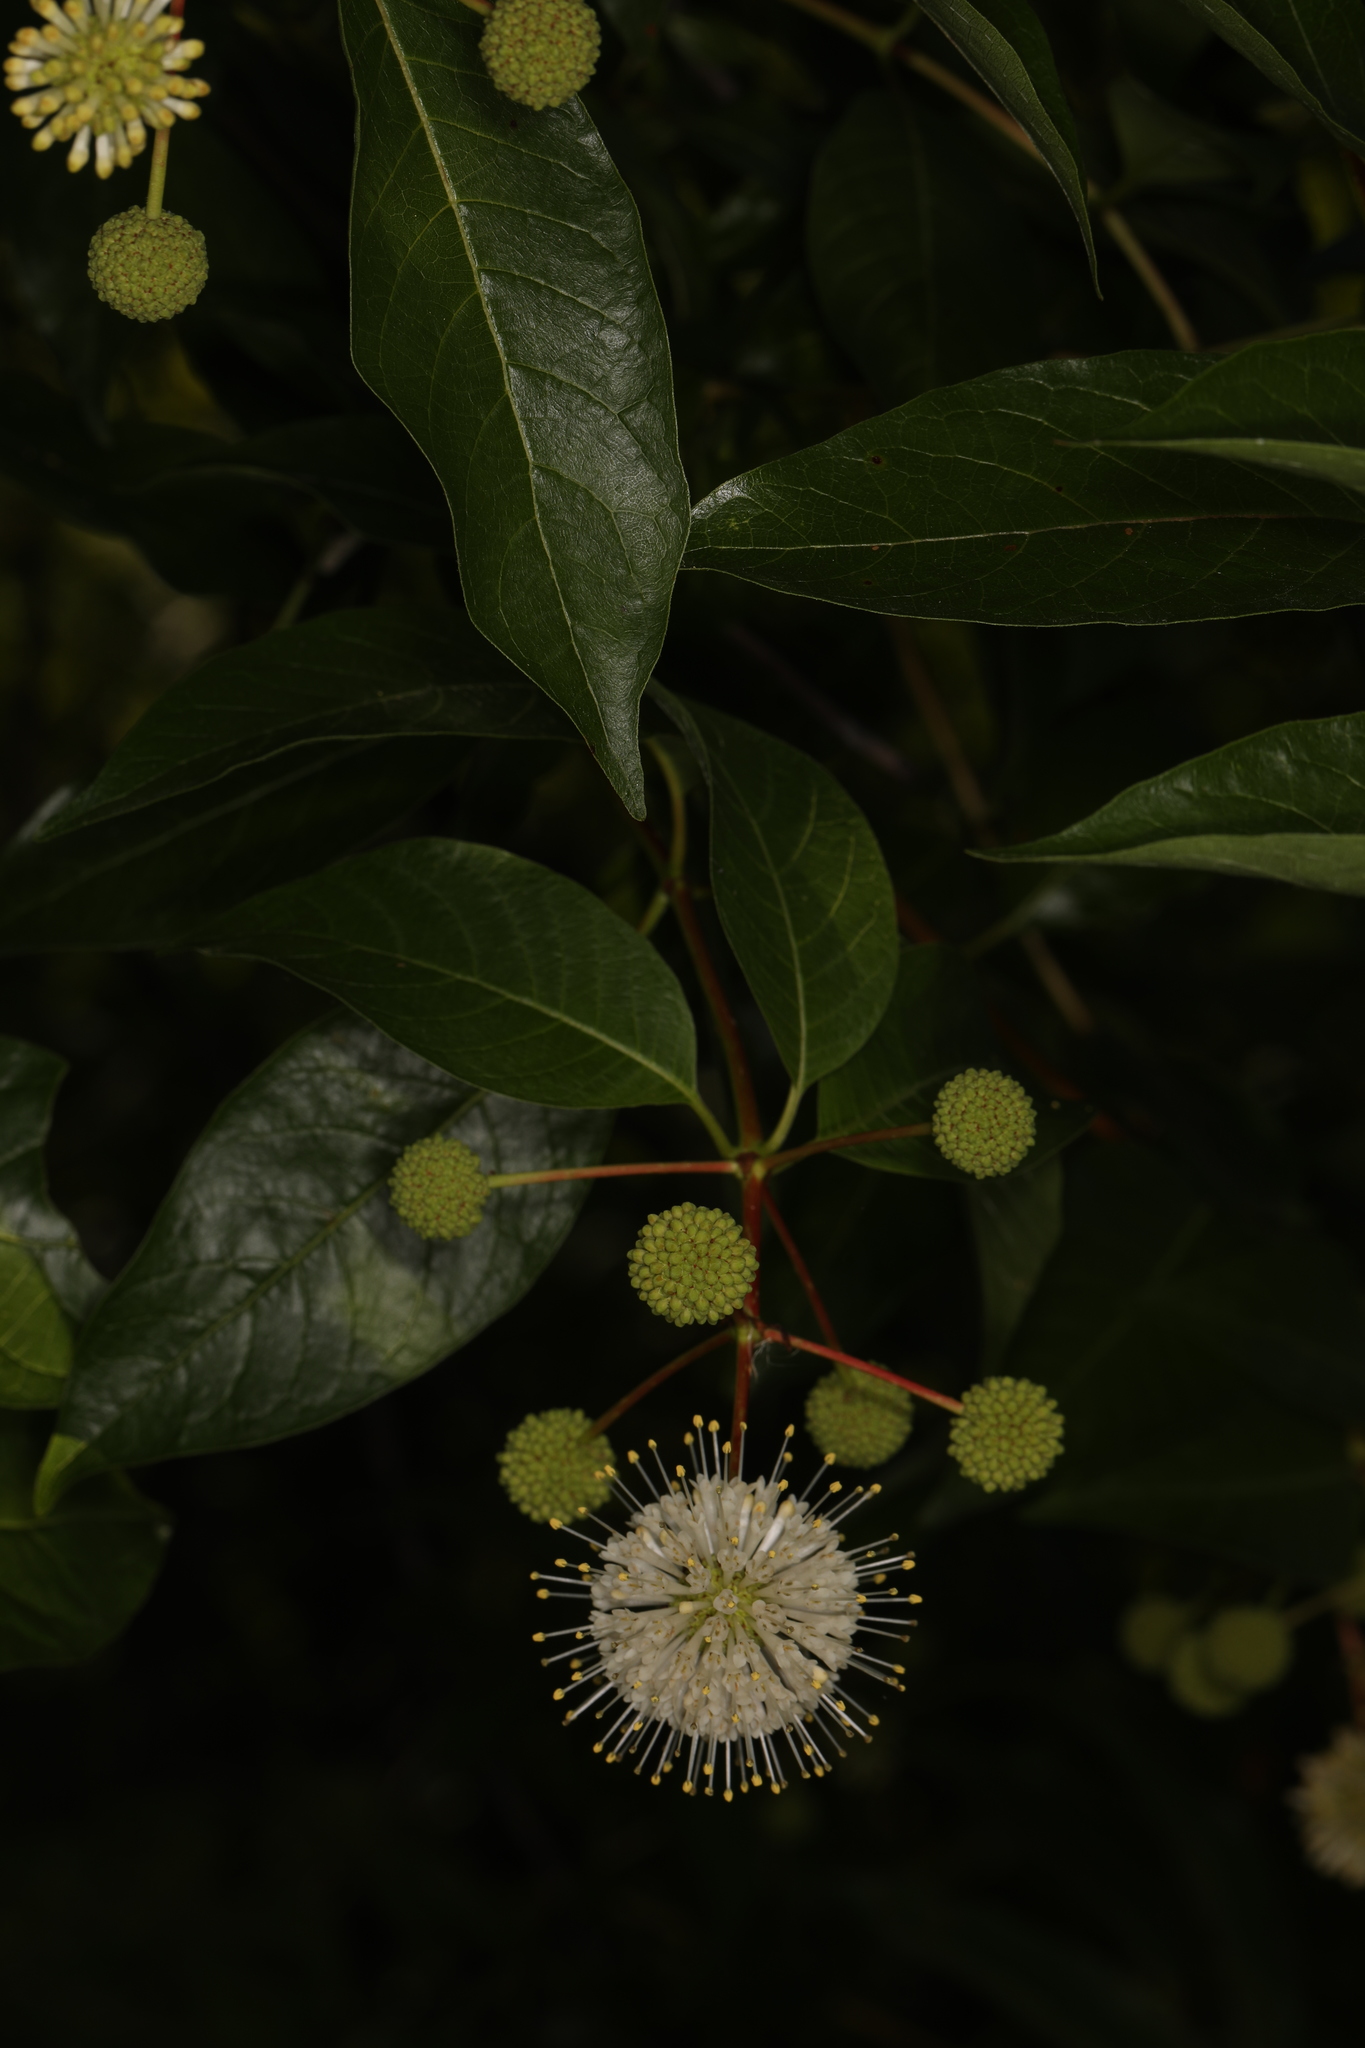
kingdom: Plantae
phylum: Tracheophyta
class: Magnoliopsida
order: Gentianales
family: Rubiaceae
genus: Cephalanthus
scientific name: Cephalanthus occidentalis
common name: Button-willow
